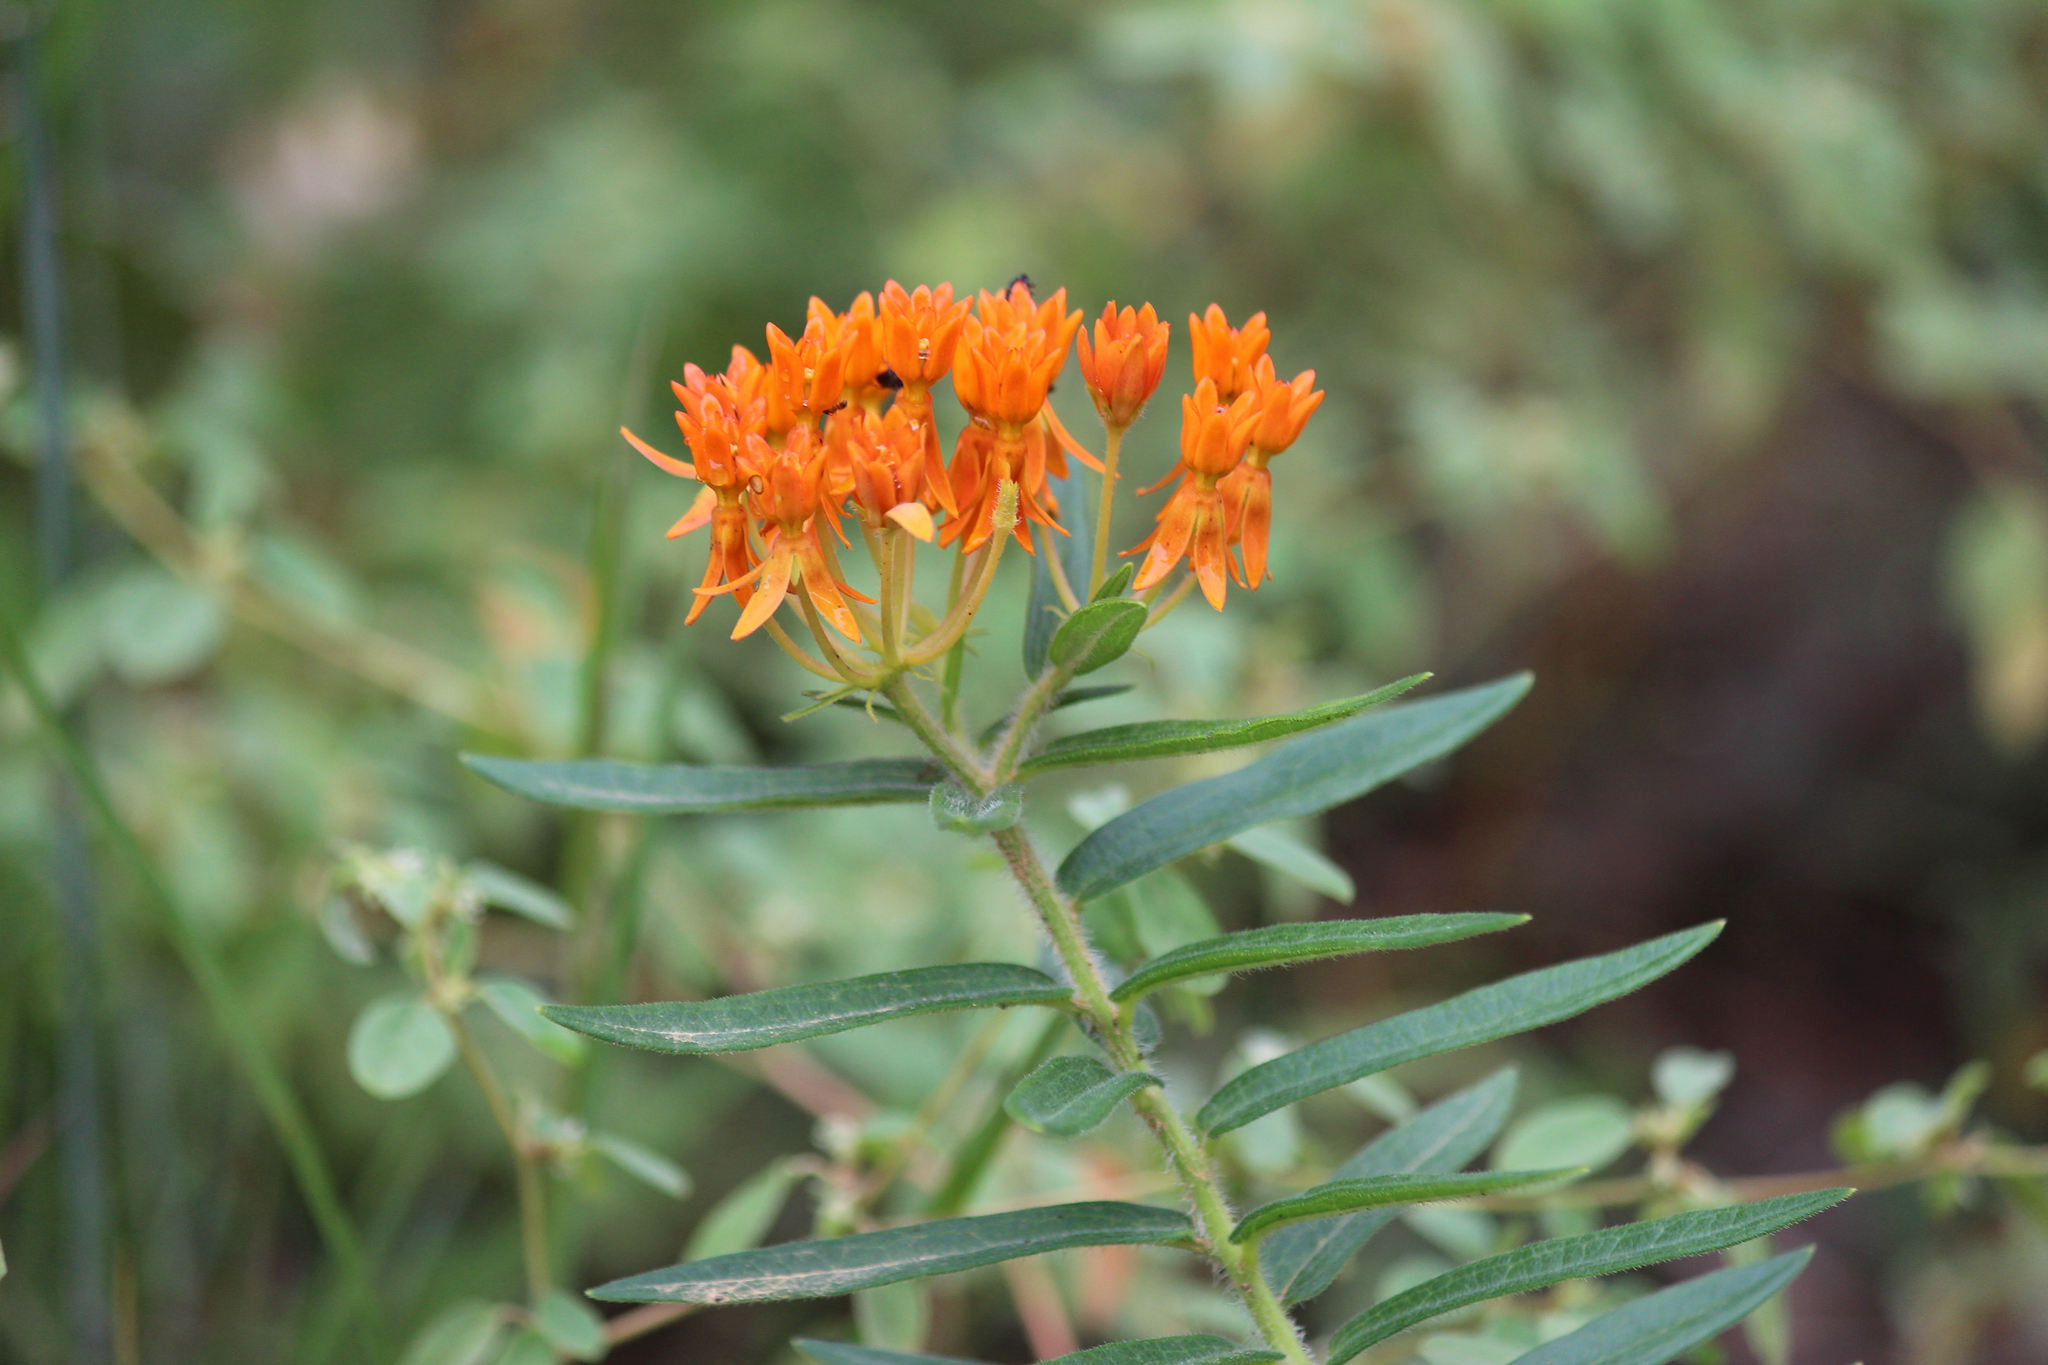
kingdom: Plantae
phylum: Tracheophyta
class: Magnoliopsida
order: Gentianales
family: Apocynaceae
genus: Asclepias
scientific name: Asclepias tuberosa
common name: Butterfly milkweed
